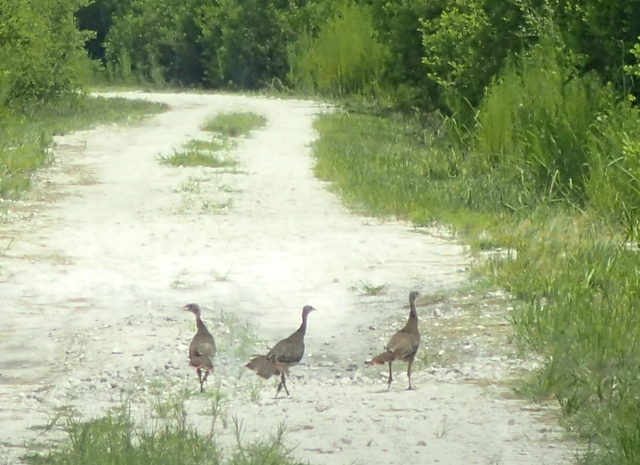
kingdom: Animalia
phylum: Chordata
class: Aves
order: Galliformes
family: Phasianidae
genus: Meleagris
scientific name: Meleagris gallopavo
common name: Wild turkey
